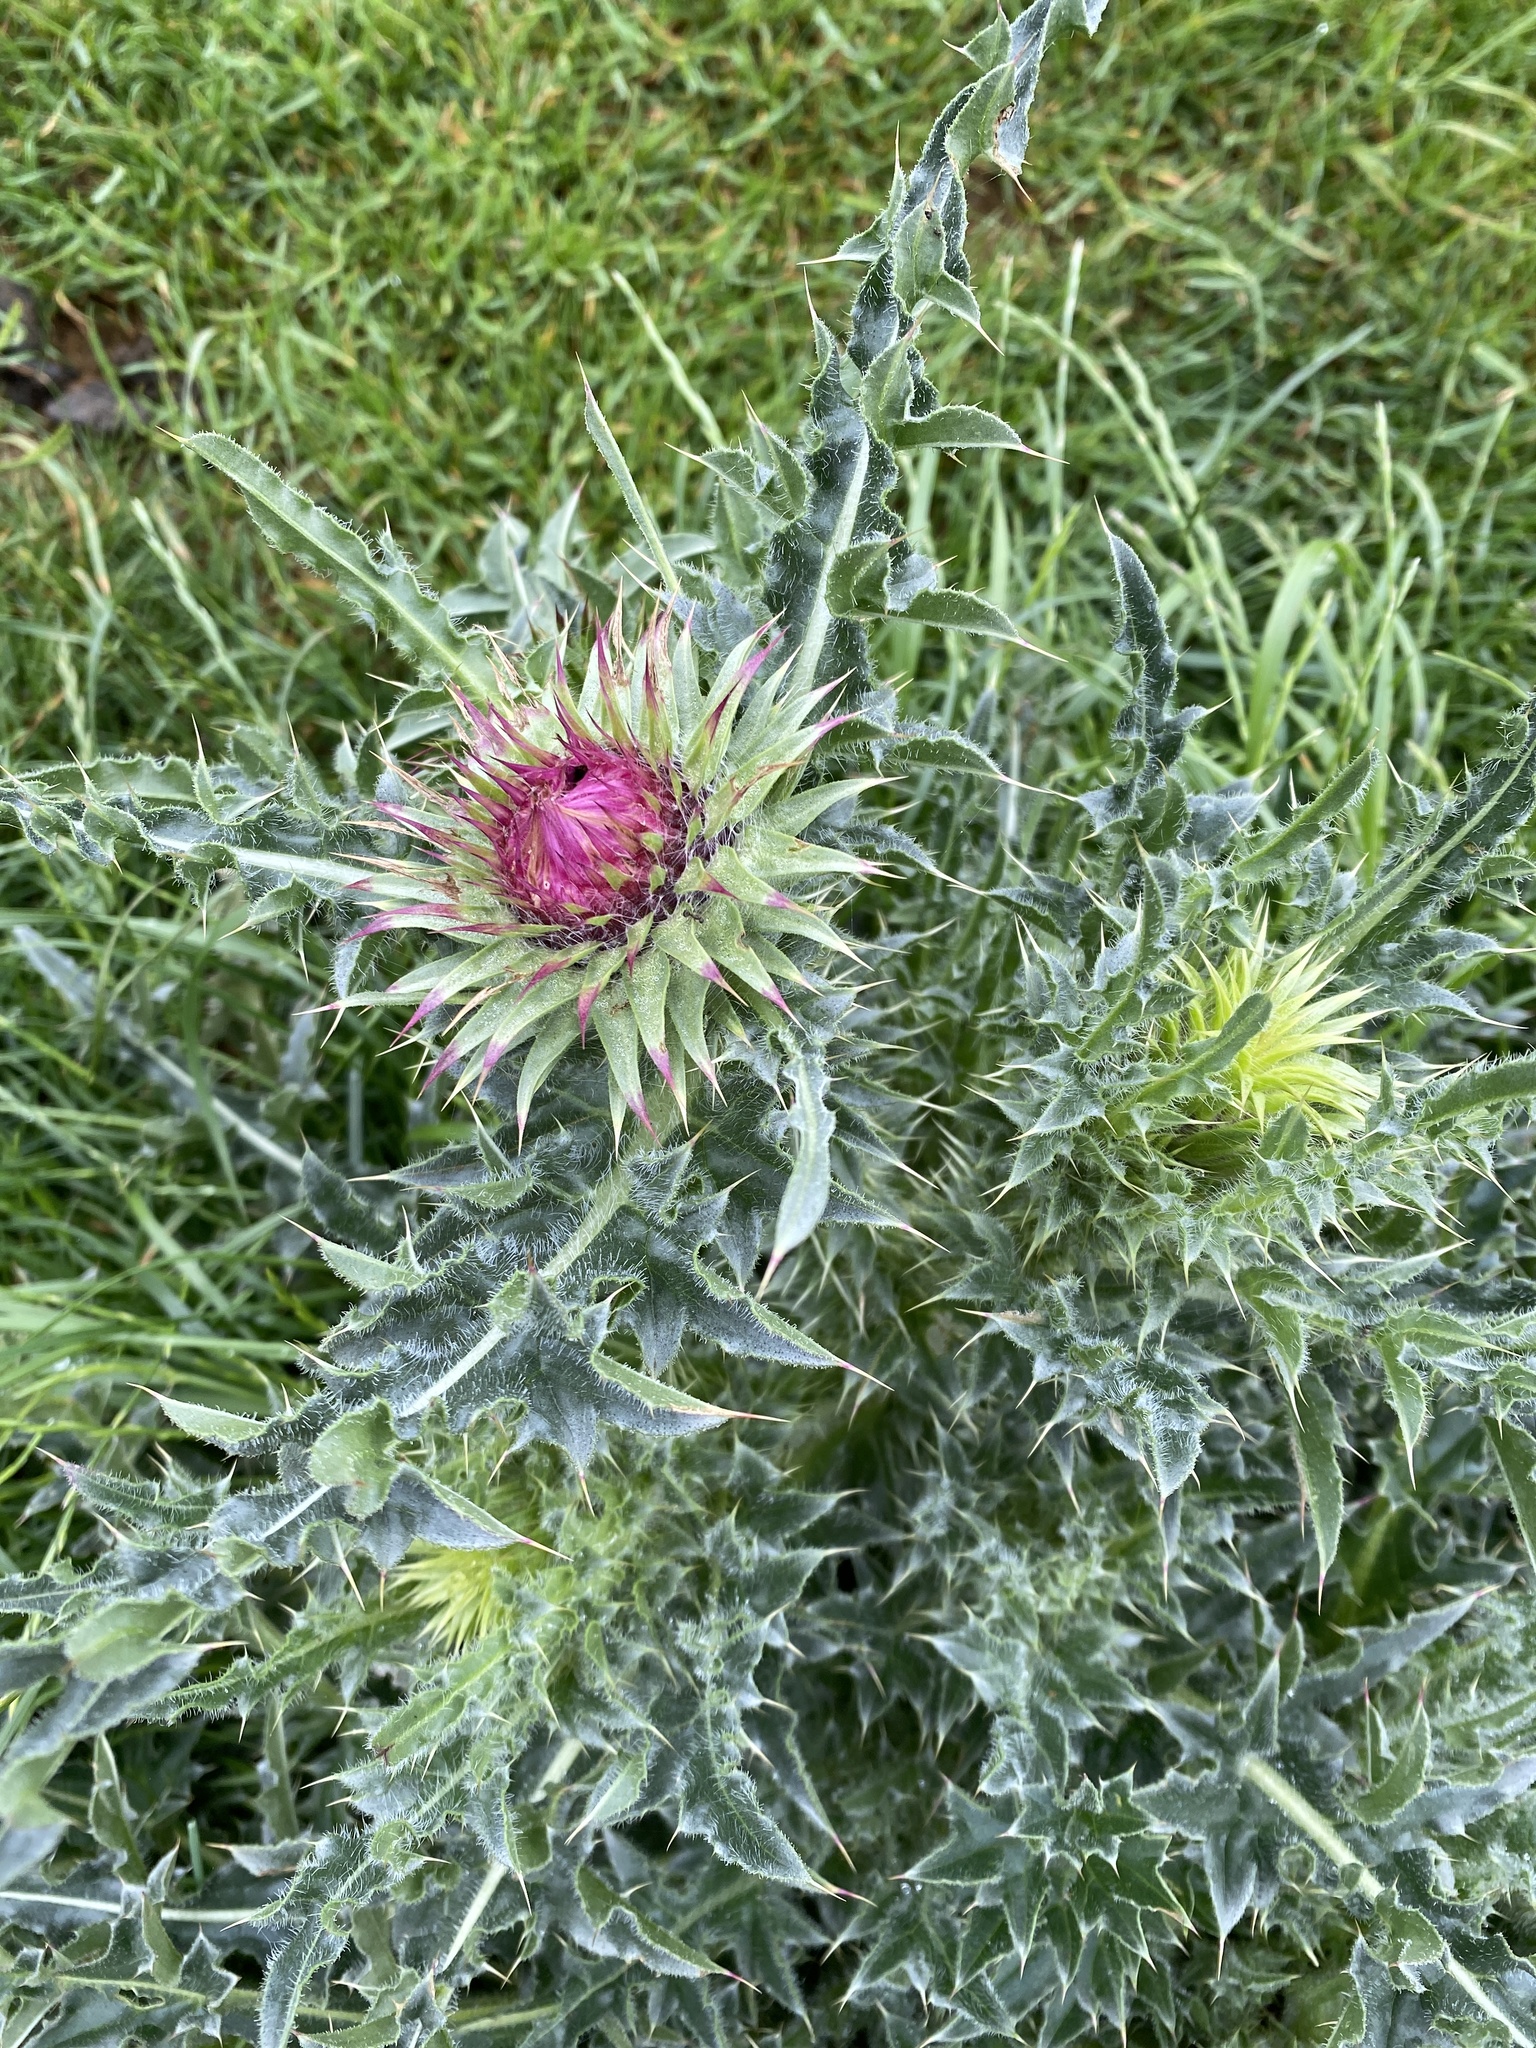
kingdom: Plantae
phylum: Tracheophyta
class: Magnoliopsida
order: Asterales
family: Asteraceae
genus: Carduus
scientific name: Carduus nutans
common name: Musk thistle
